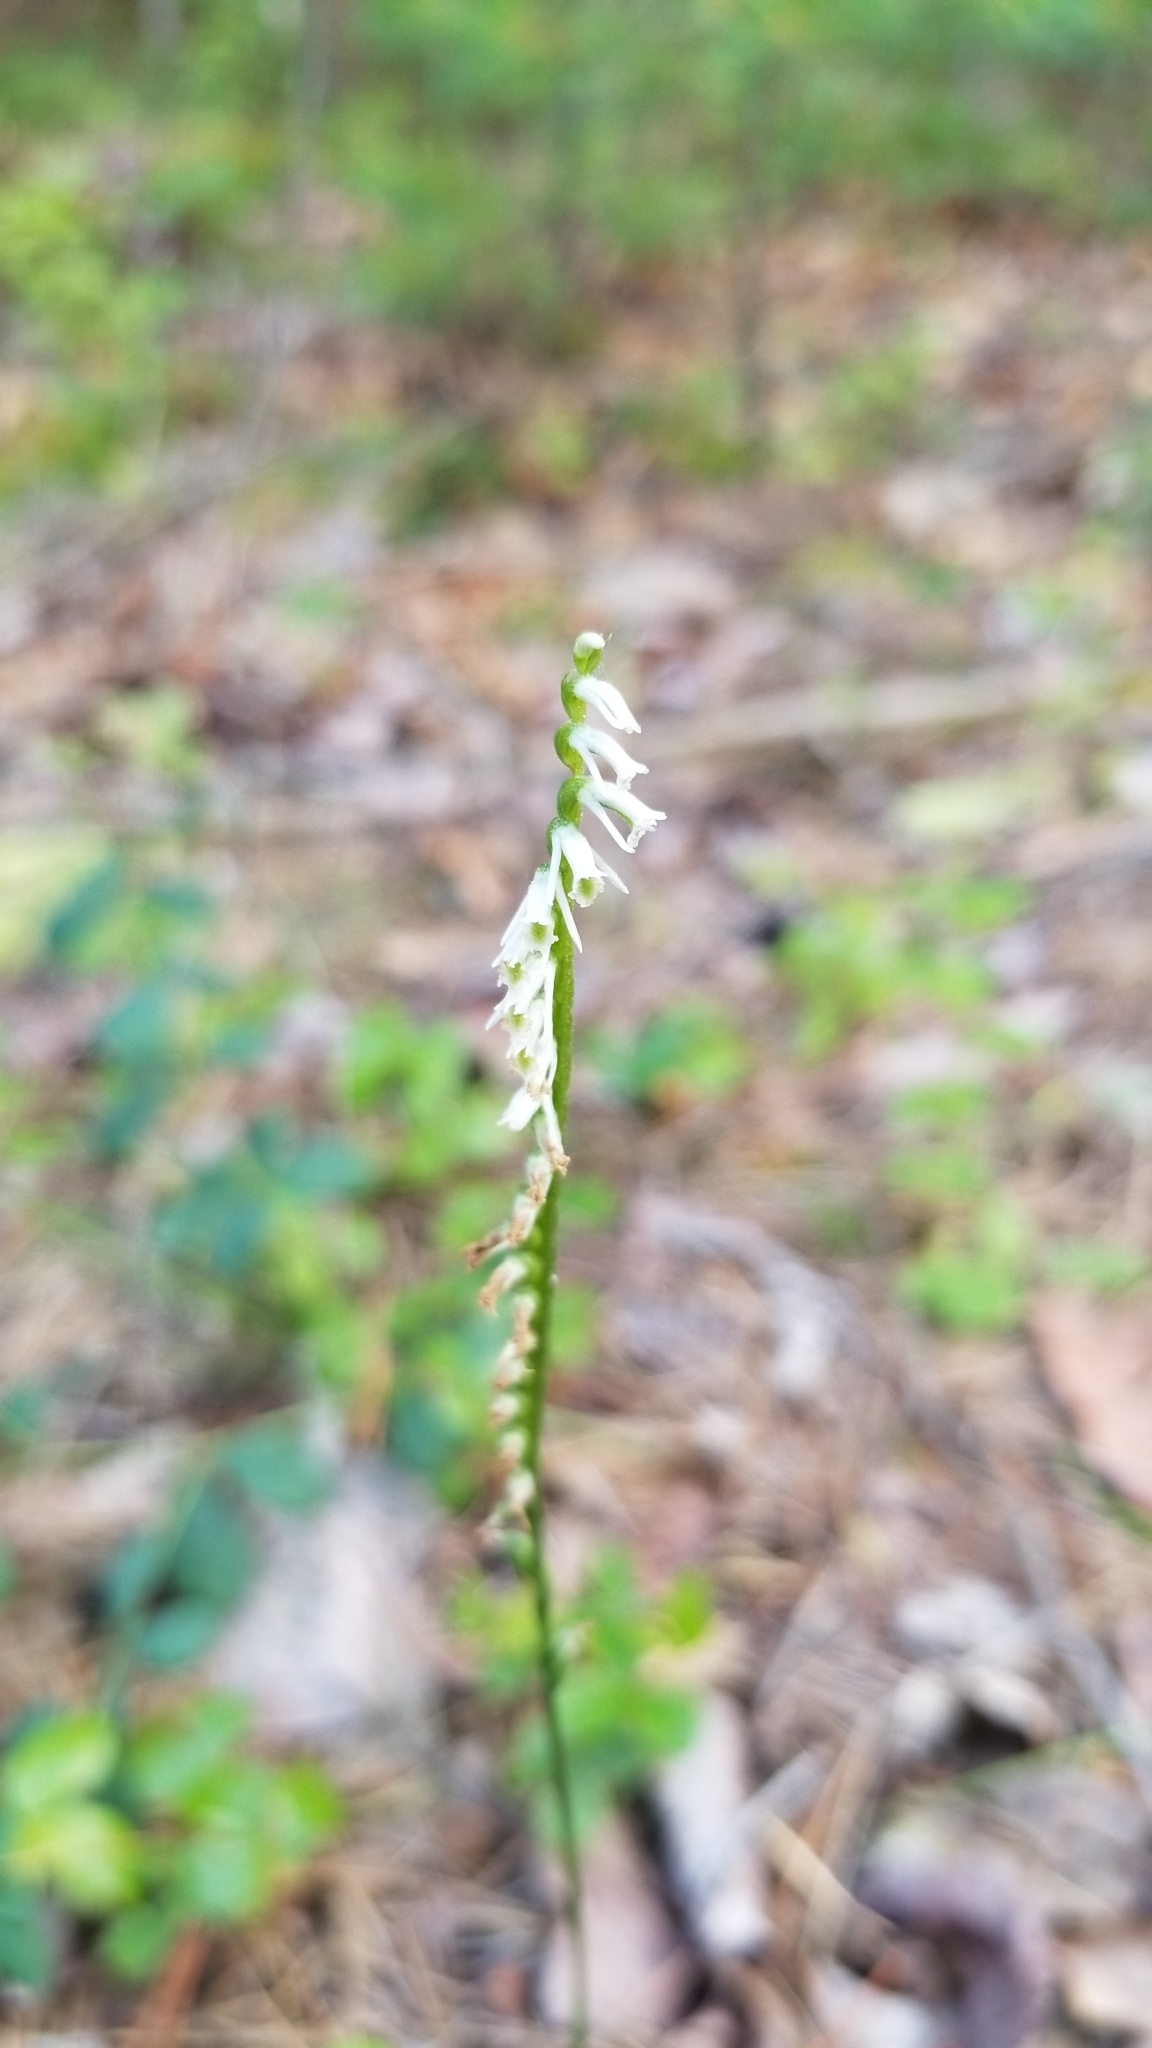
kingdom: Plantae
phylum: Tracheophyta
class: Liliopsida
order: Asparagales
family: Orchidaceae
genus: Spiranthes
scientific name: Spiranthes lacera
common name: Northern slender ladies'-tresses
